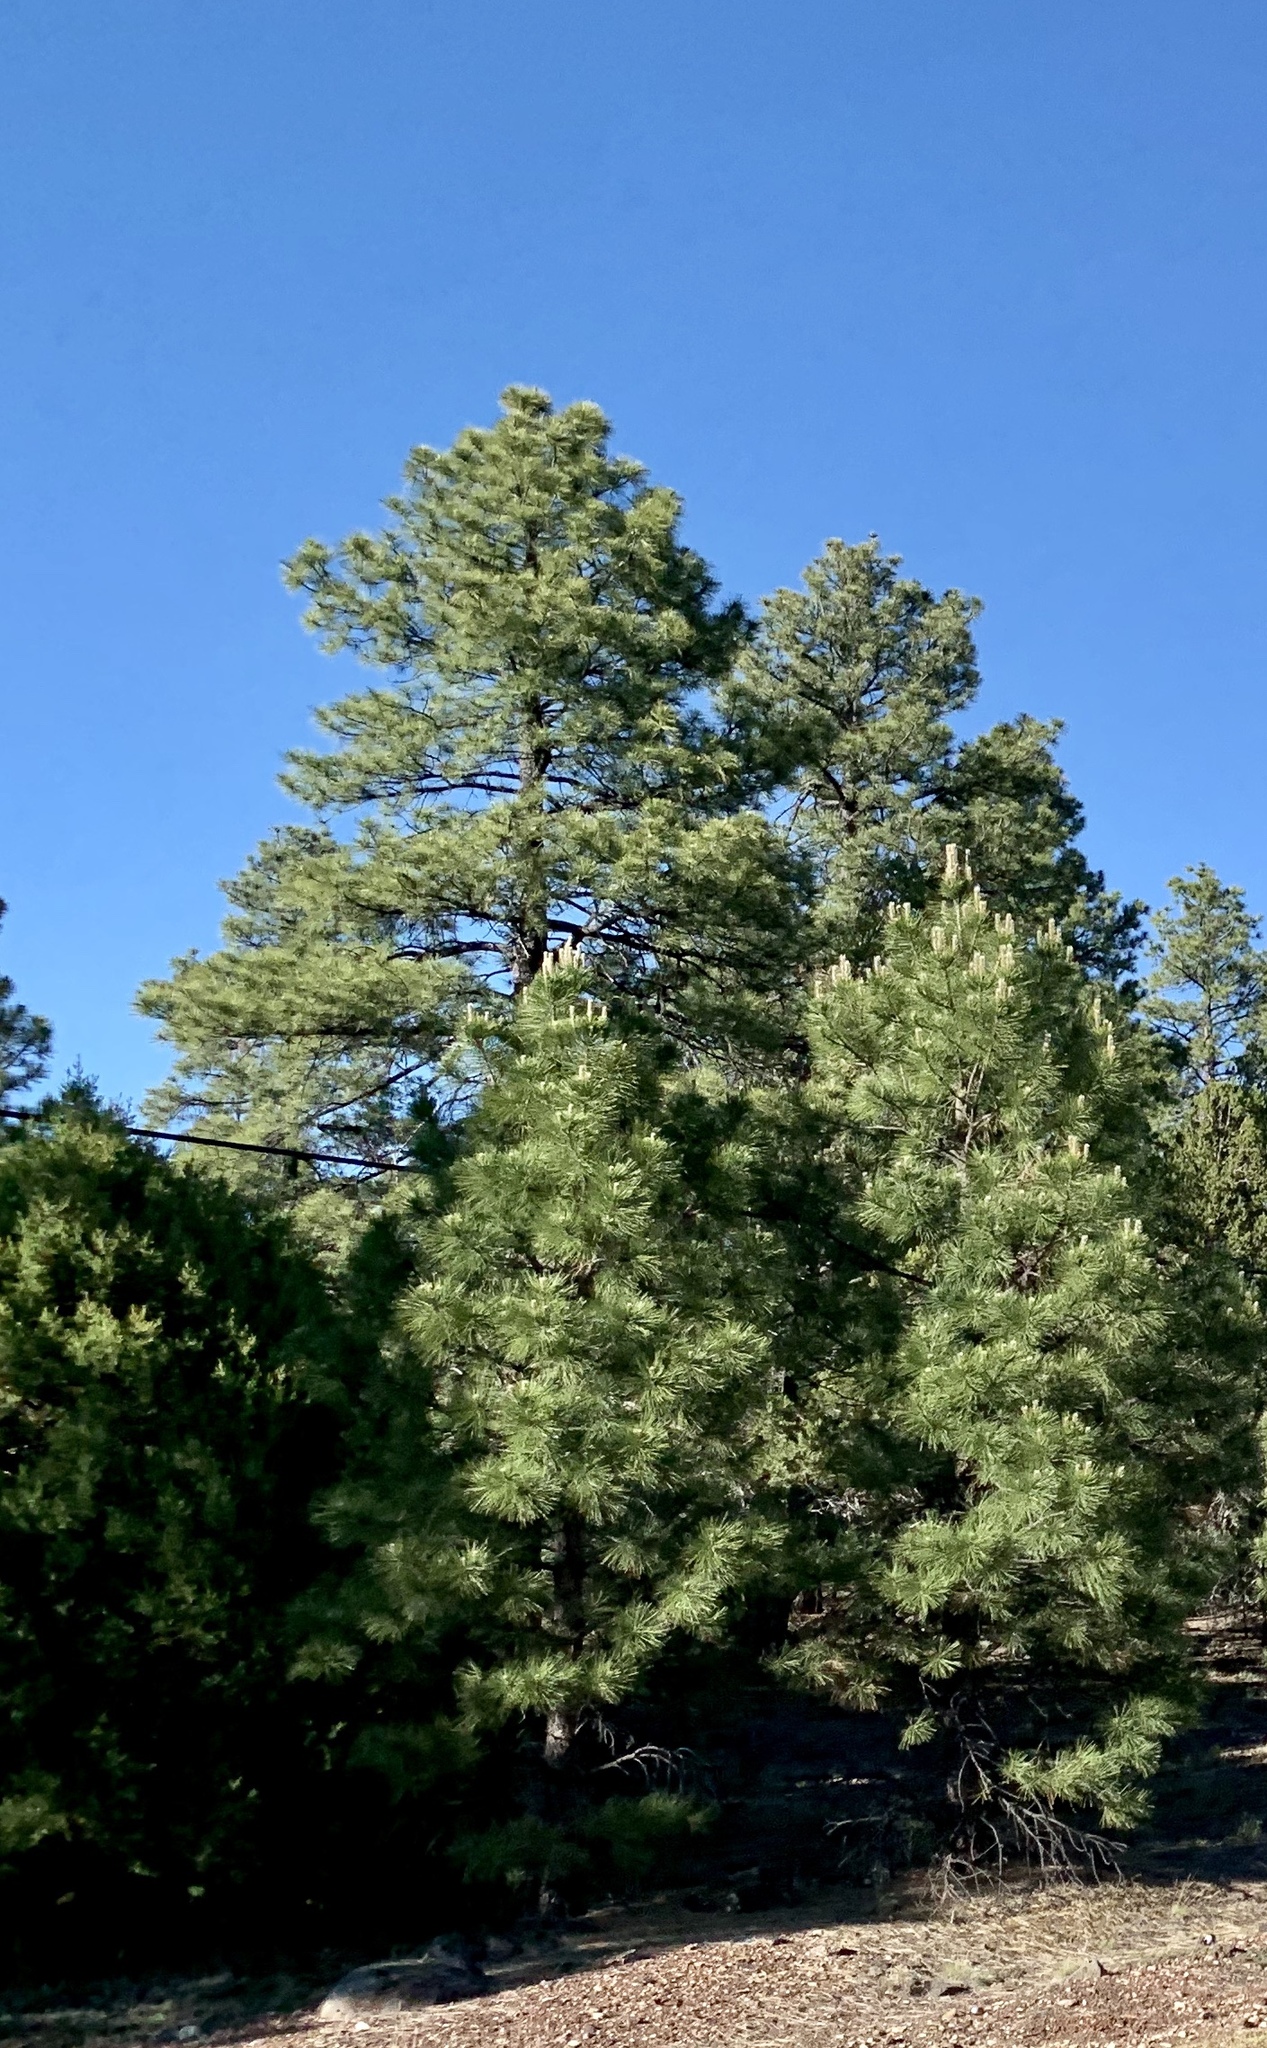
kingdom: Plantae
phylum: Tracheophyta
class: Pinopsida
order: Pinales
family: Pinaceae
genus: Pinus
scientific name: Pinus ponderosa
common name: Western yellow-pine
